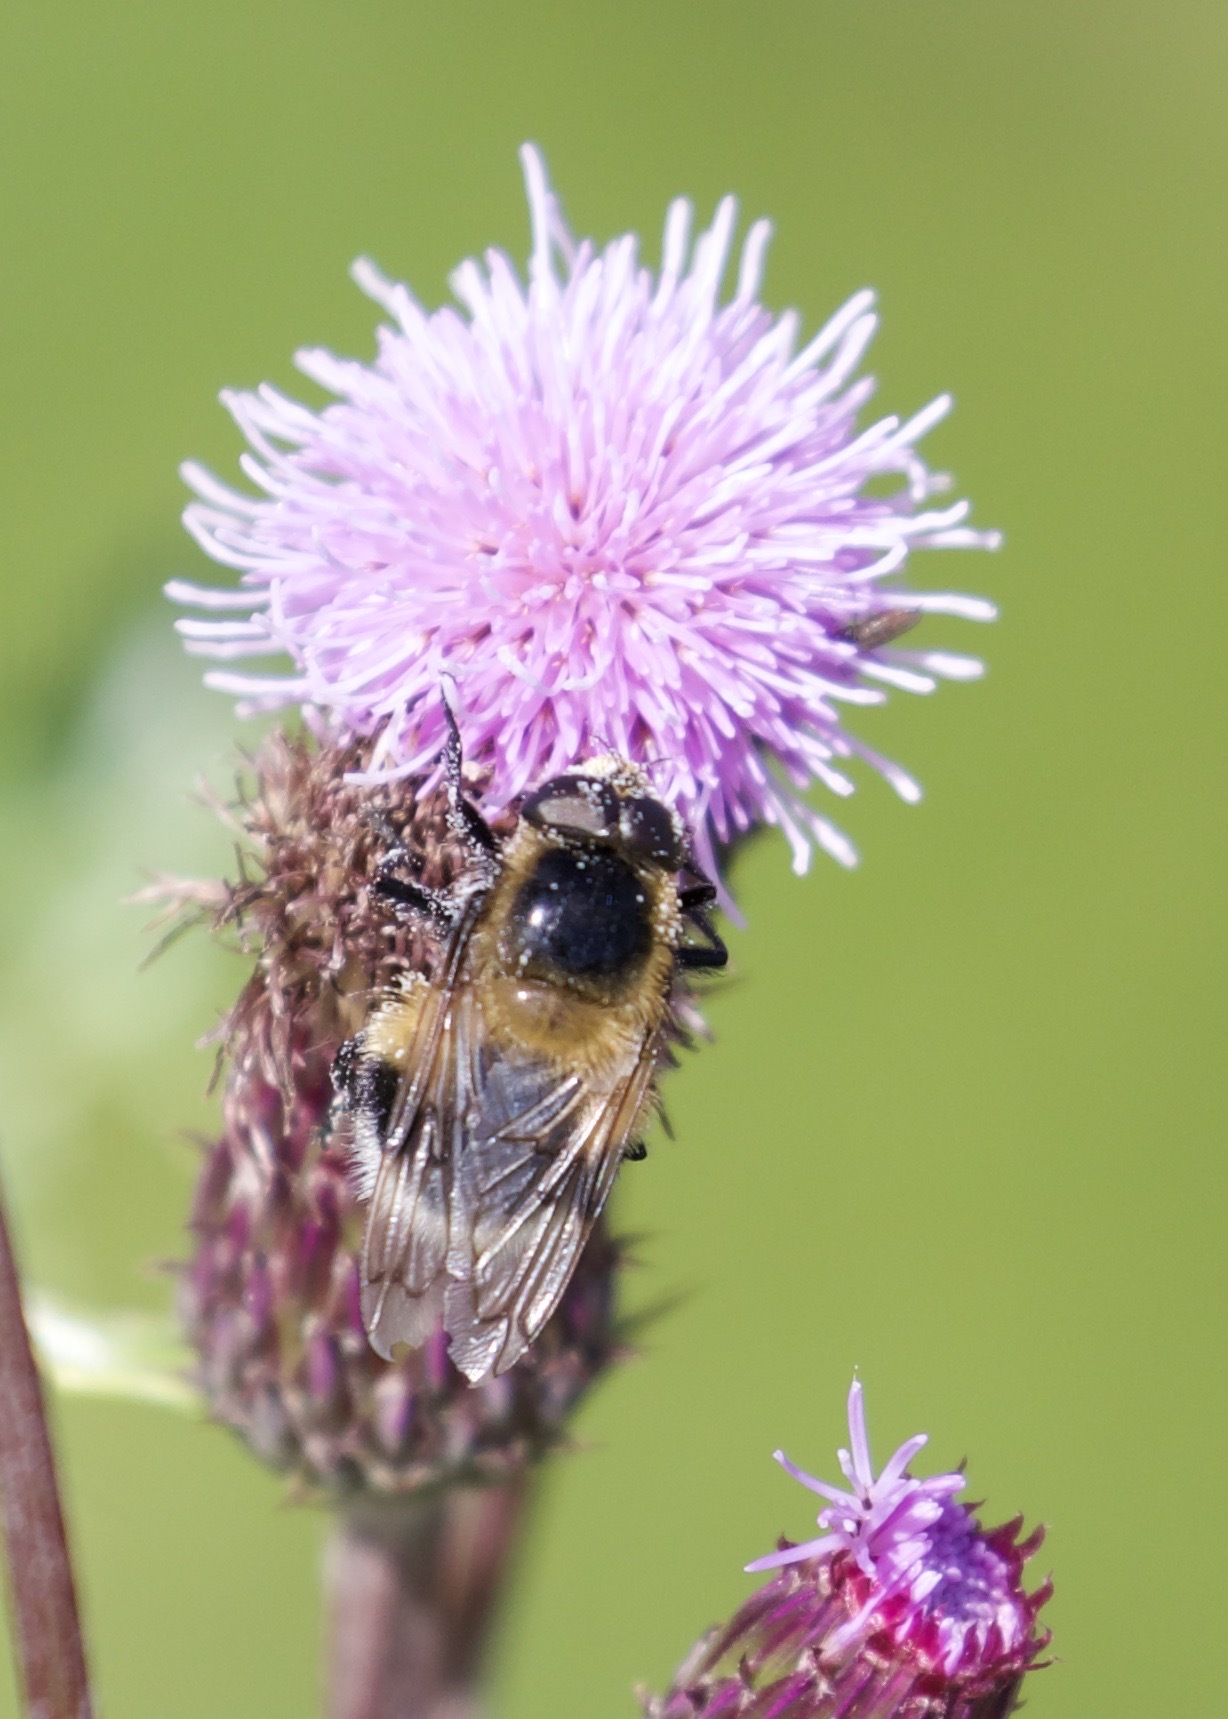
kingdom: Animalia
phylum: Arthropoda
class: Insecta
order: Diptera
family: Syrphidae
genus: Volucella
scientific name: Volucella bombylans
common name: Bumble bee hover fly
